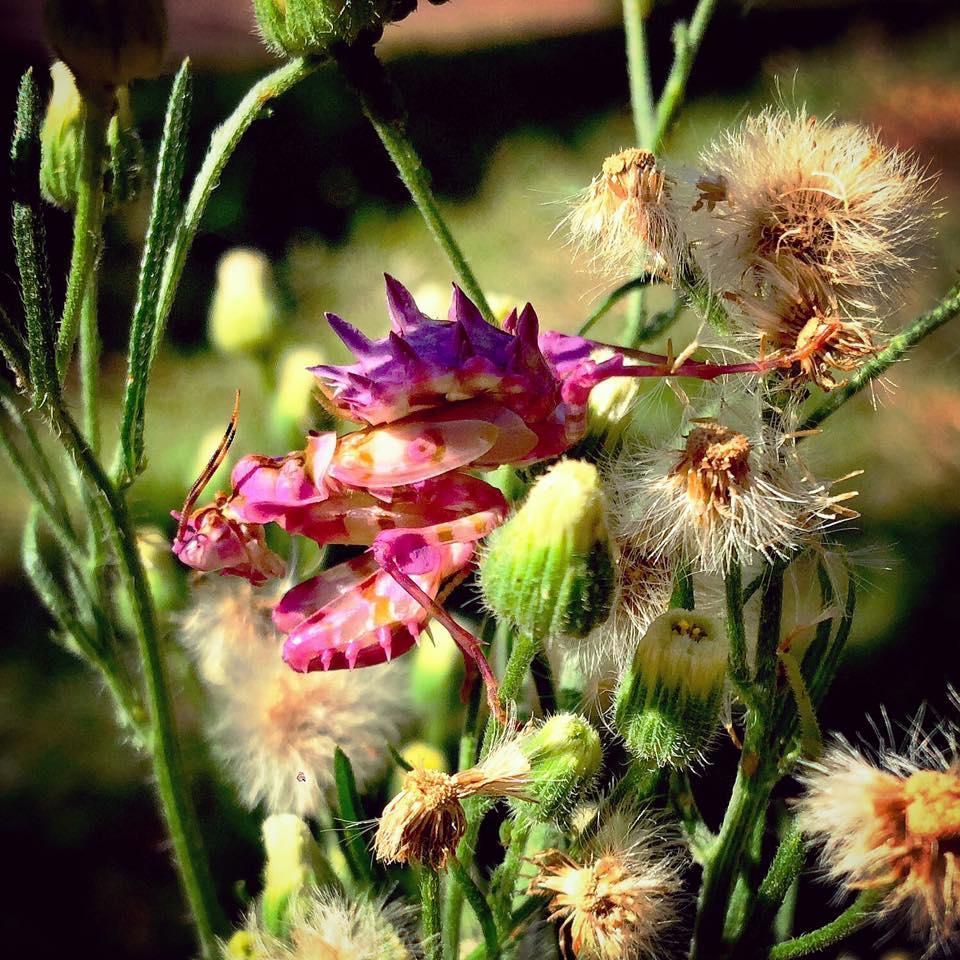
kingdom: Animalia
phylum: Arthropoda
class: Insecta
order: Mantodea
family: Hymenopodidae
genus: Pseudocreobotra
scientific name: Pseudocreobotra wahlbergi
